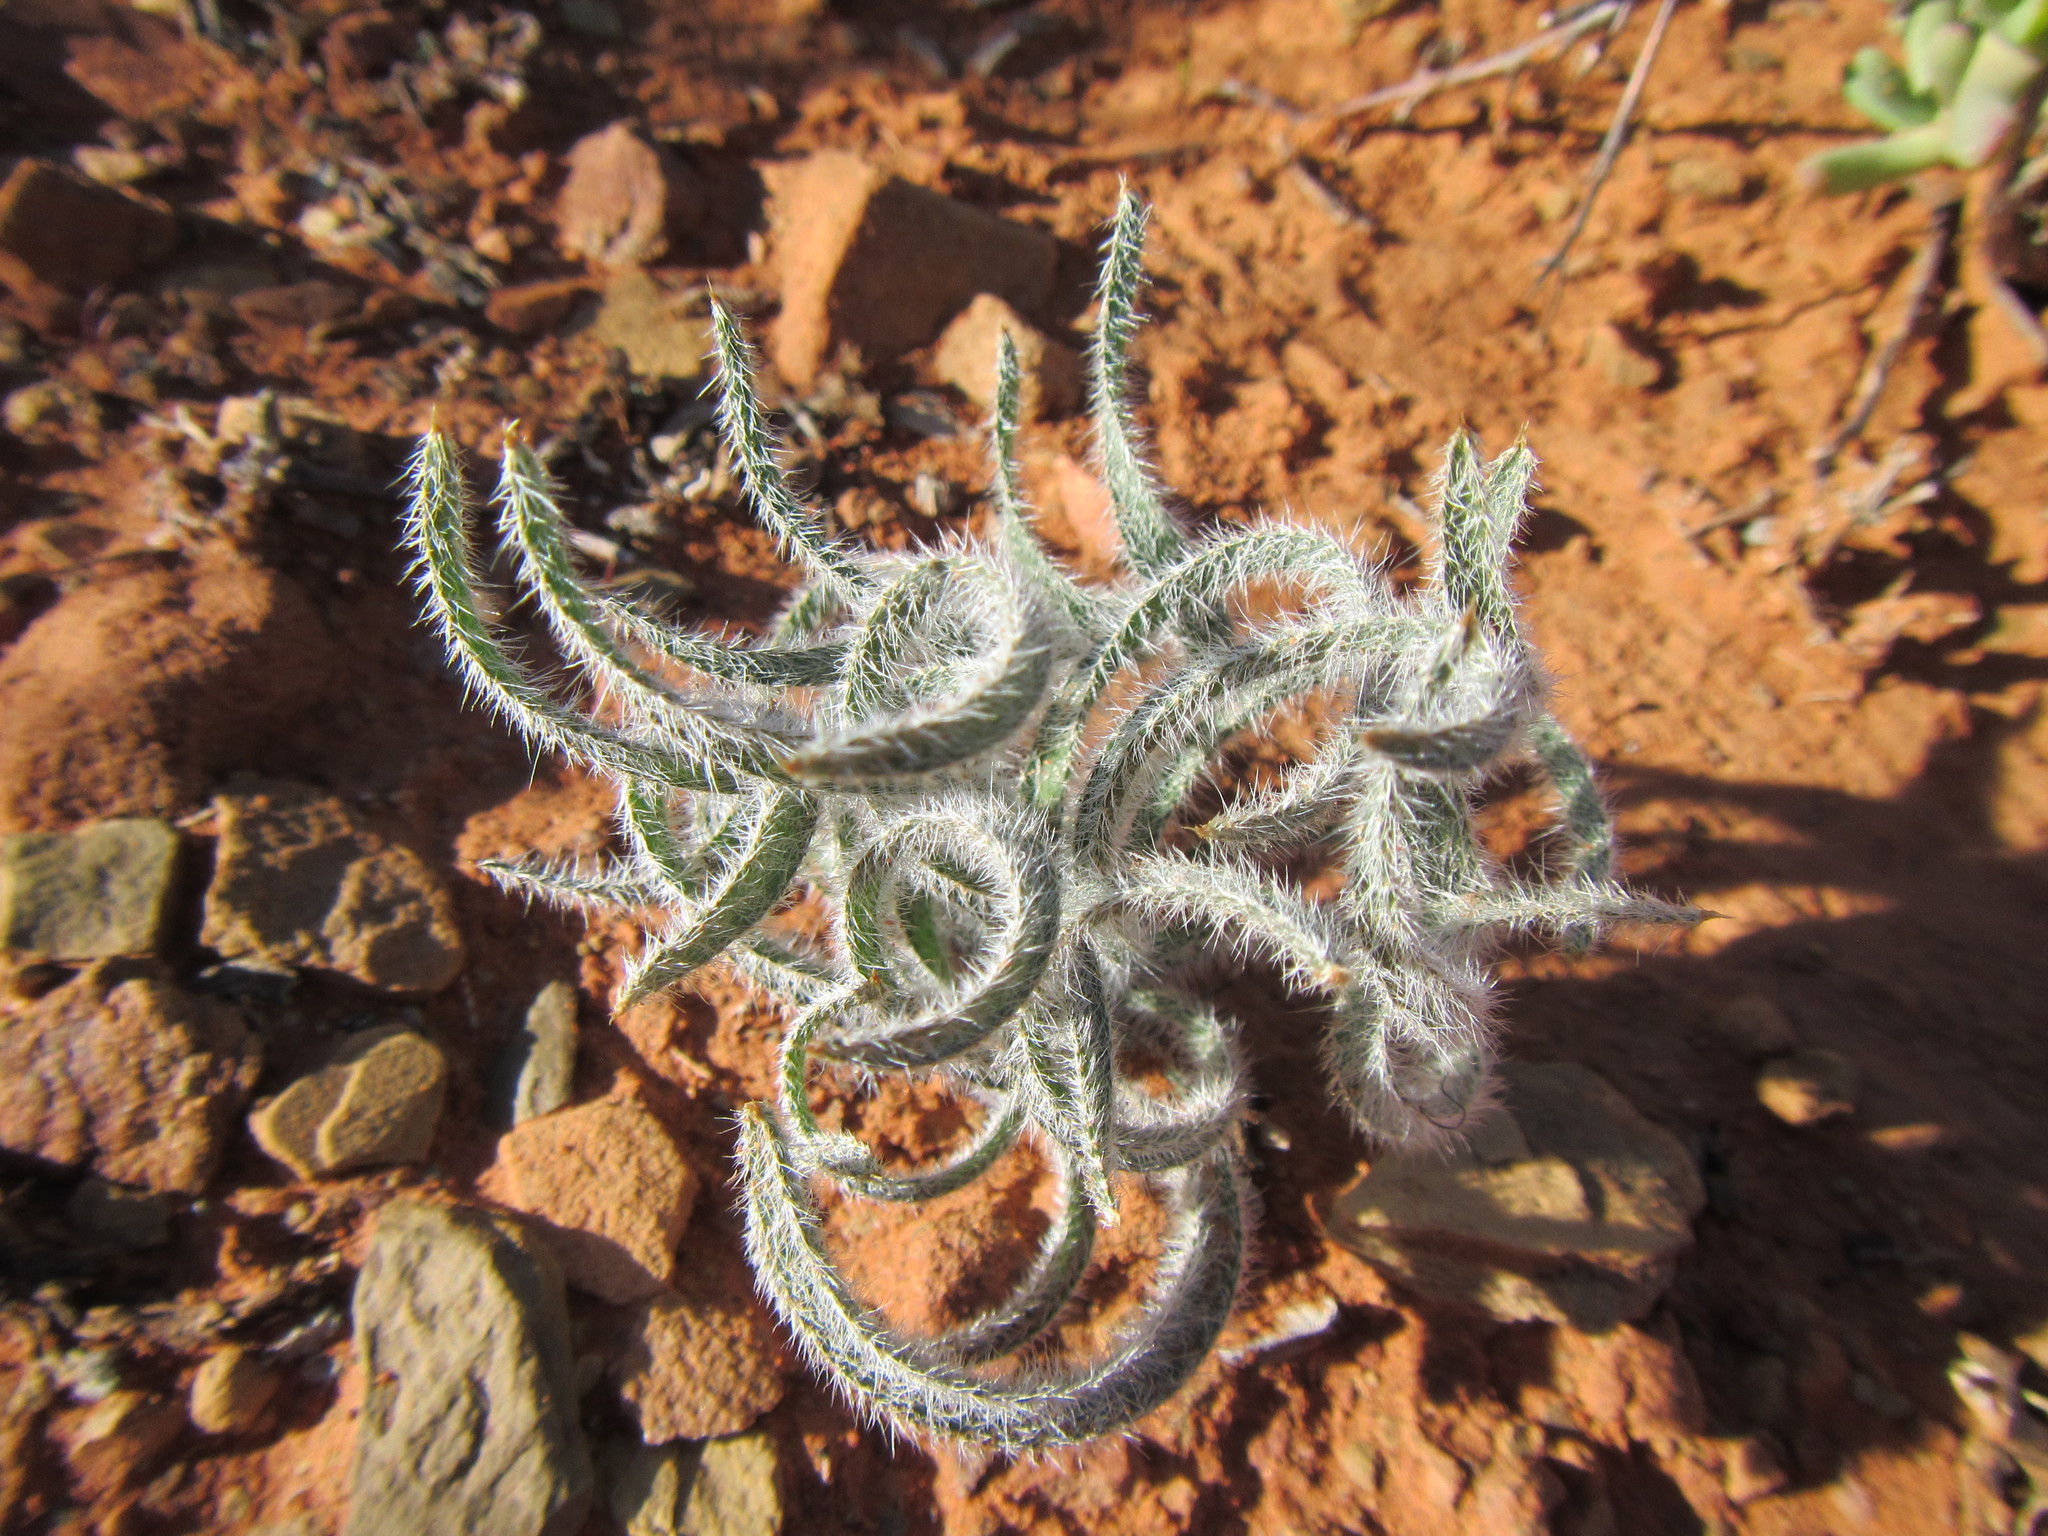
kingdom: Plantae
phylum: Tracheophyta
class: Liliopsida
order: Asparagales
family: Amaryllidaceae
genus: Gethyllis
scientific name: Gethyllis villosa
